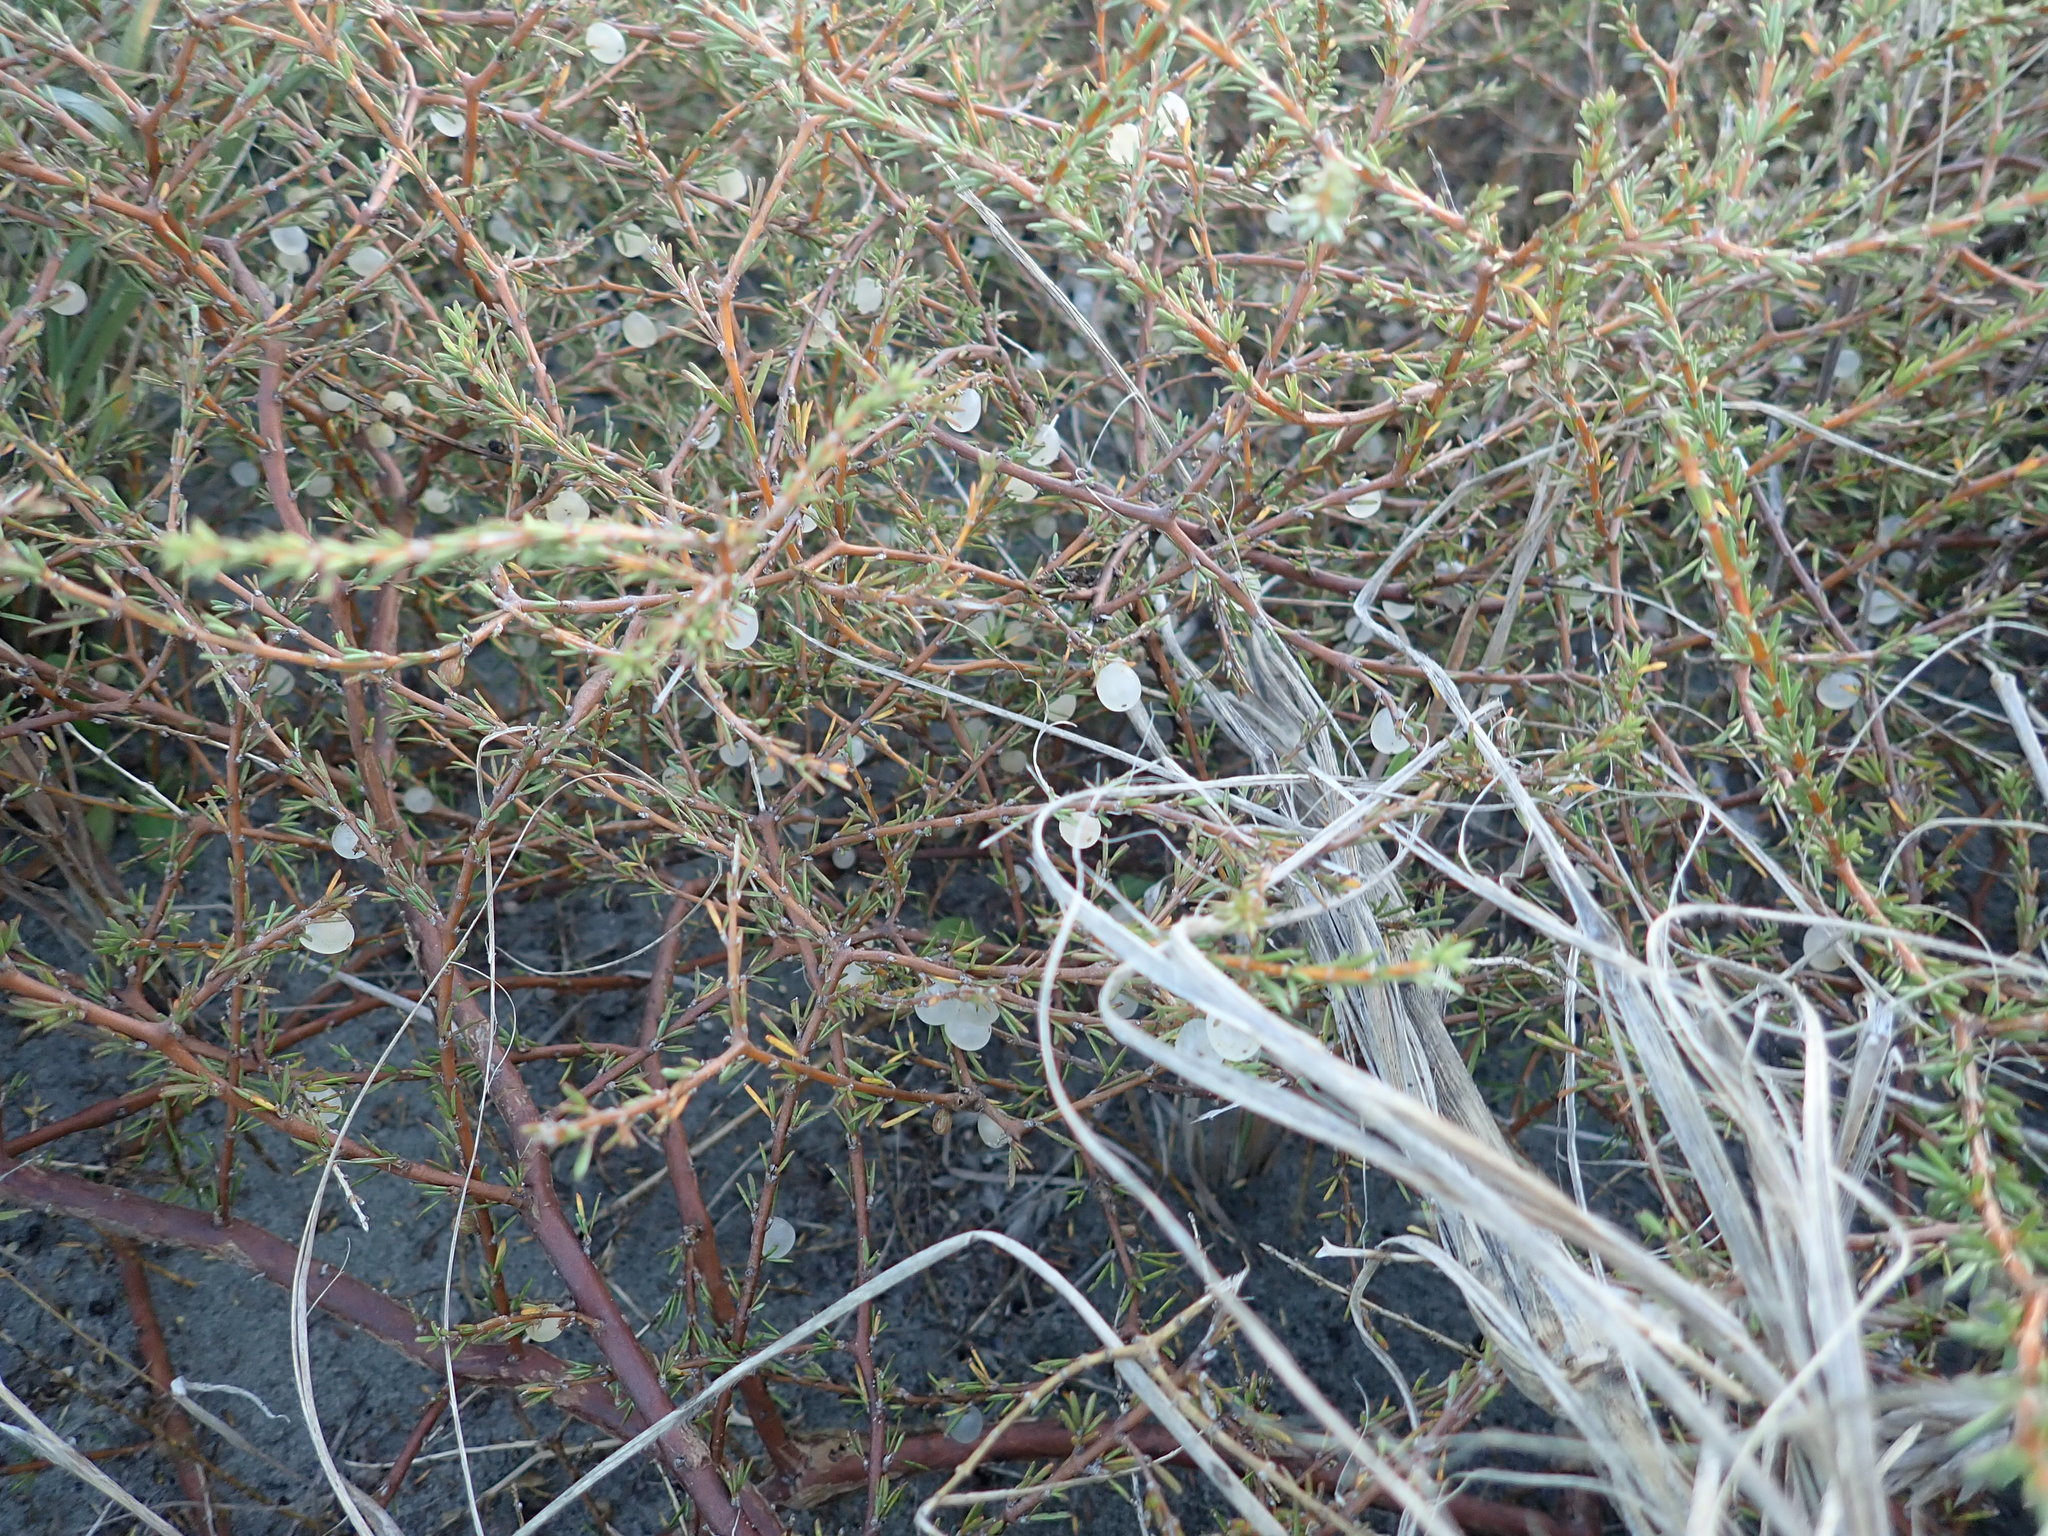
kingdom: Plantae
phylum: Tracheophyta
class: Magnoliopsida
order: Gentianales
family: Rubiaceae
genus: Coprosma
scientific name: Coprosma acerosa
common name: Sand coprosma
